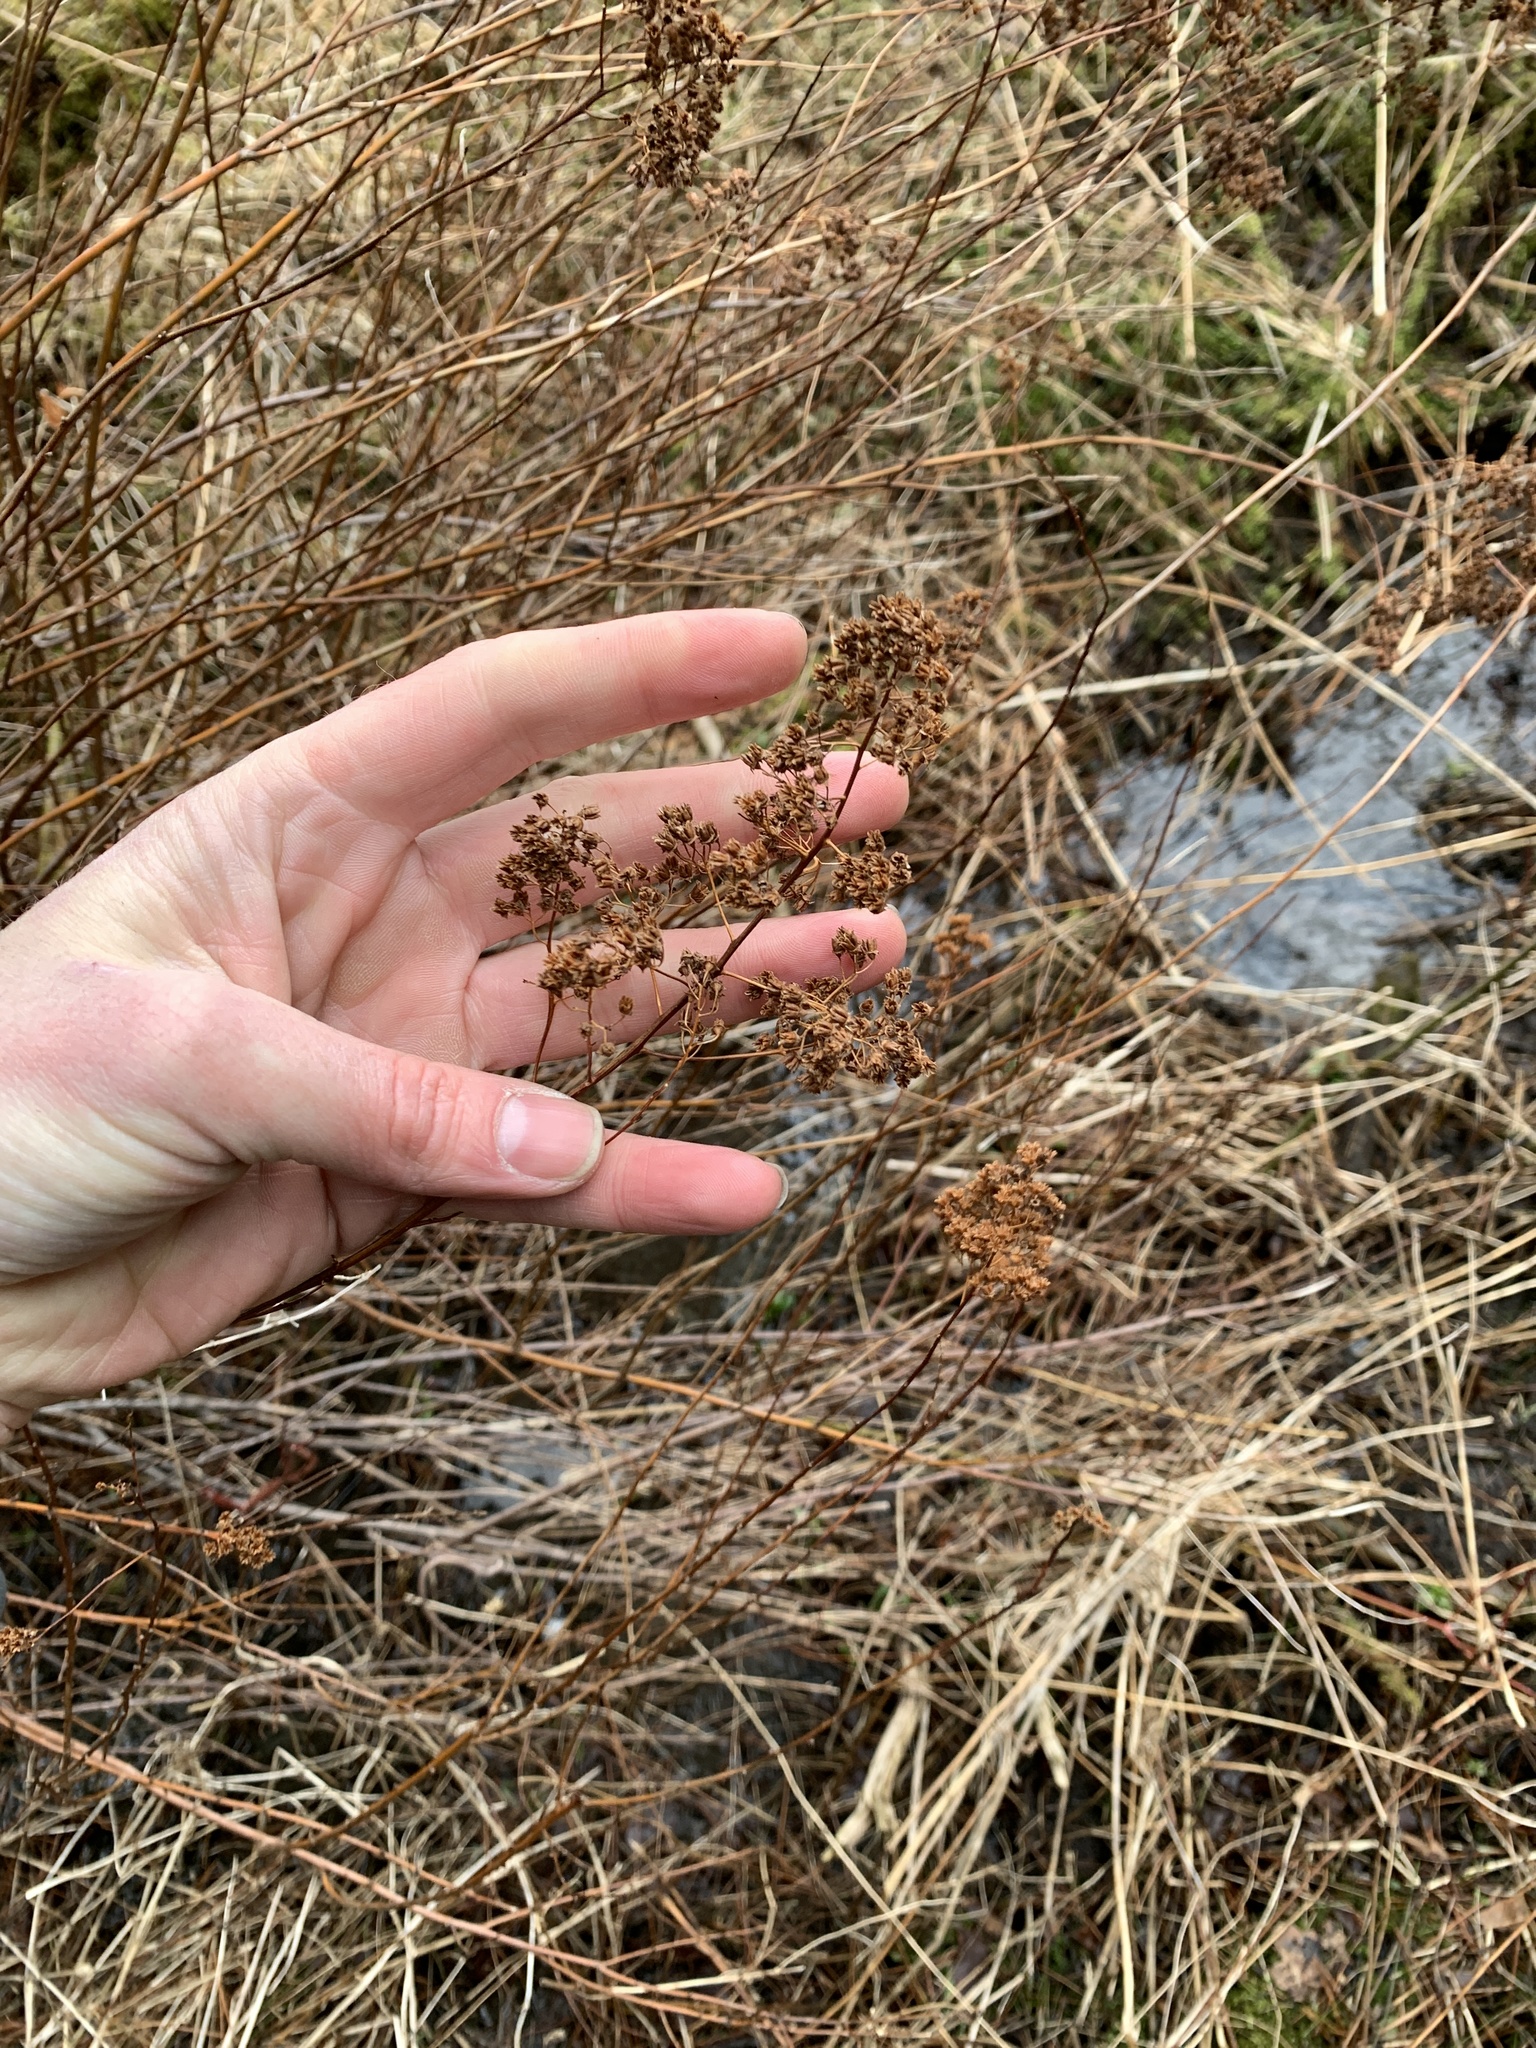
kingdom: Plantae
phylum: Tracheophyta
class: Magnoliopsida
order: Rosales
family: Rosaceae
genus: Spiraea
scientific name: Spiraea alba
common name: Pale bridewort
